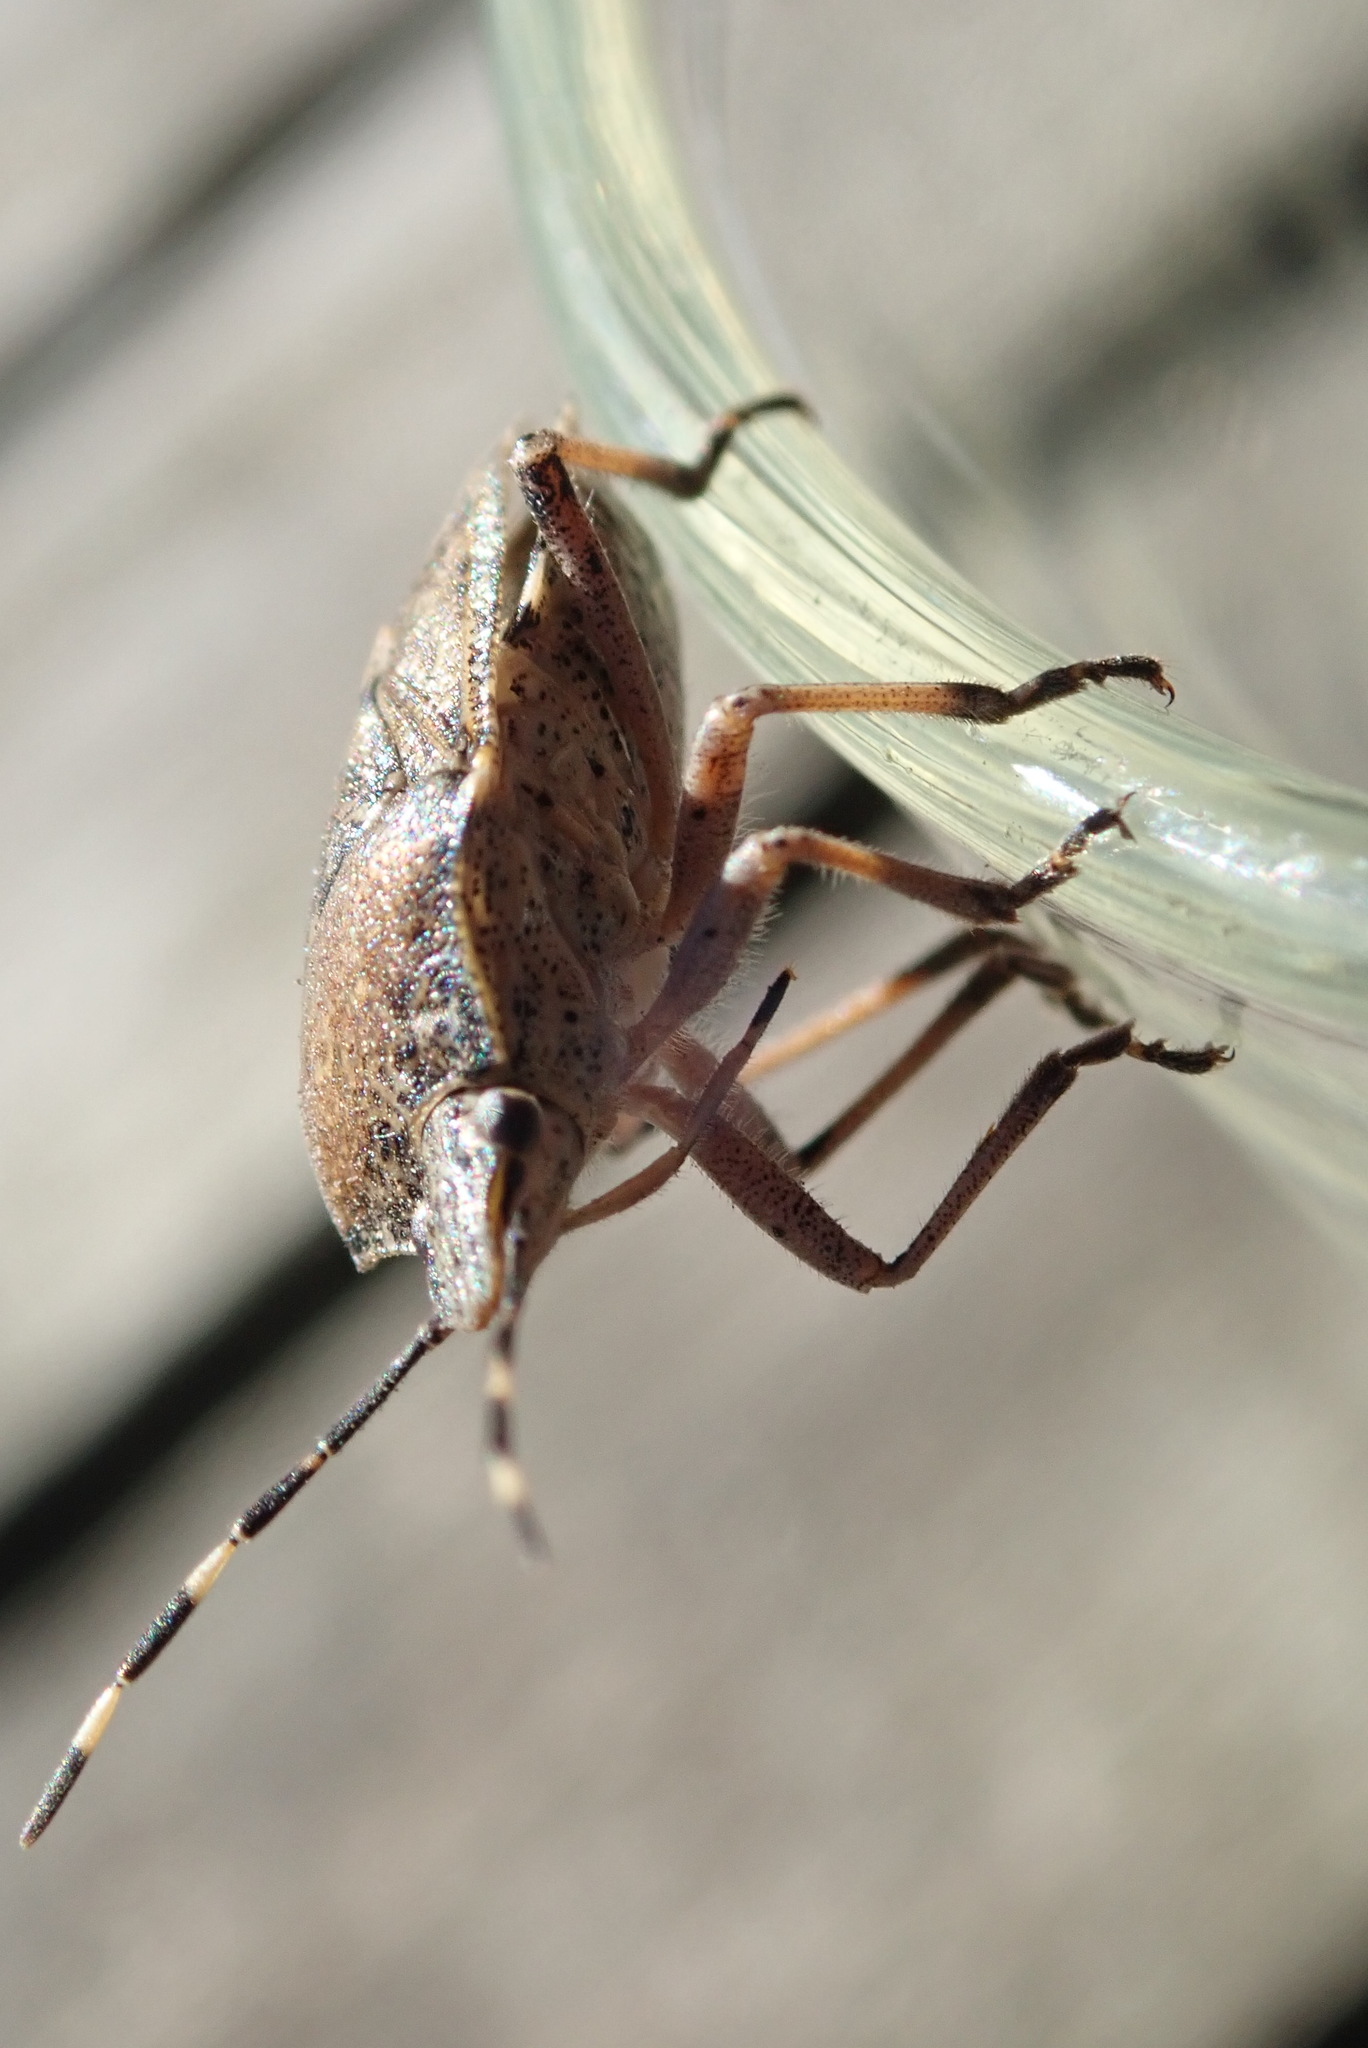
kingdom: Animalia
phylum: Arthropoda
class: Insecta
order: Hemiptera
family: Pentatomidae
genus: Rhaphigaster
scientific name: Rhaphigaster nebulosa
